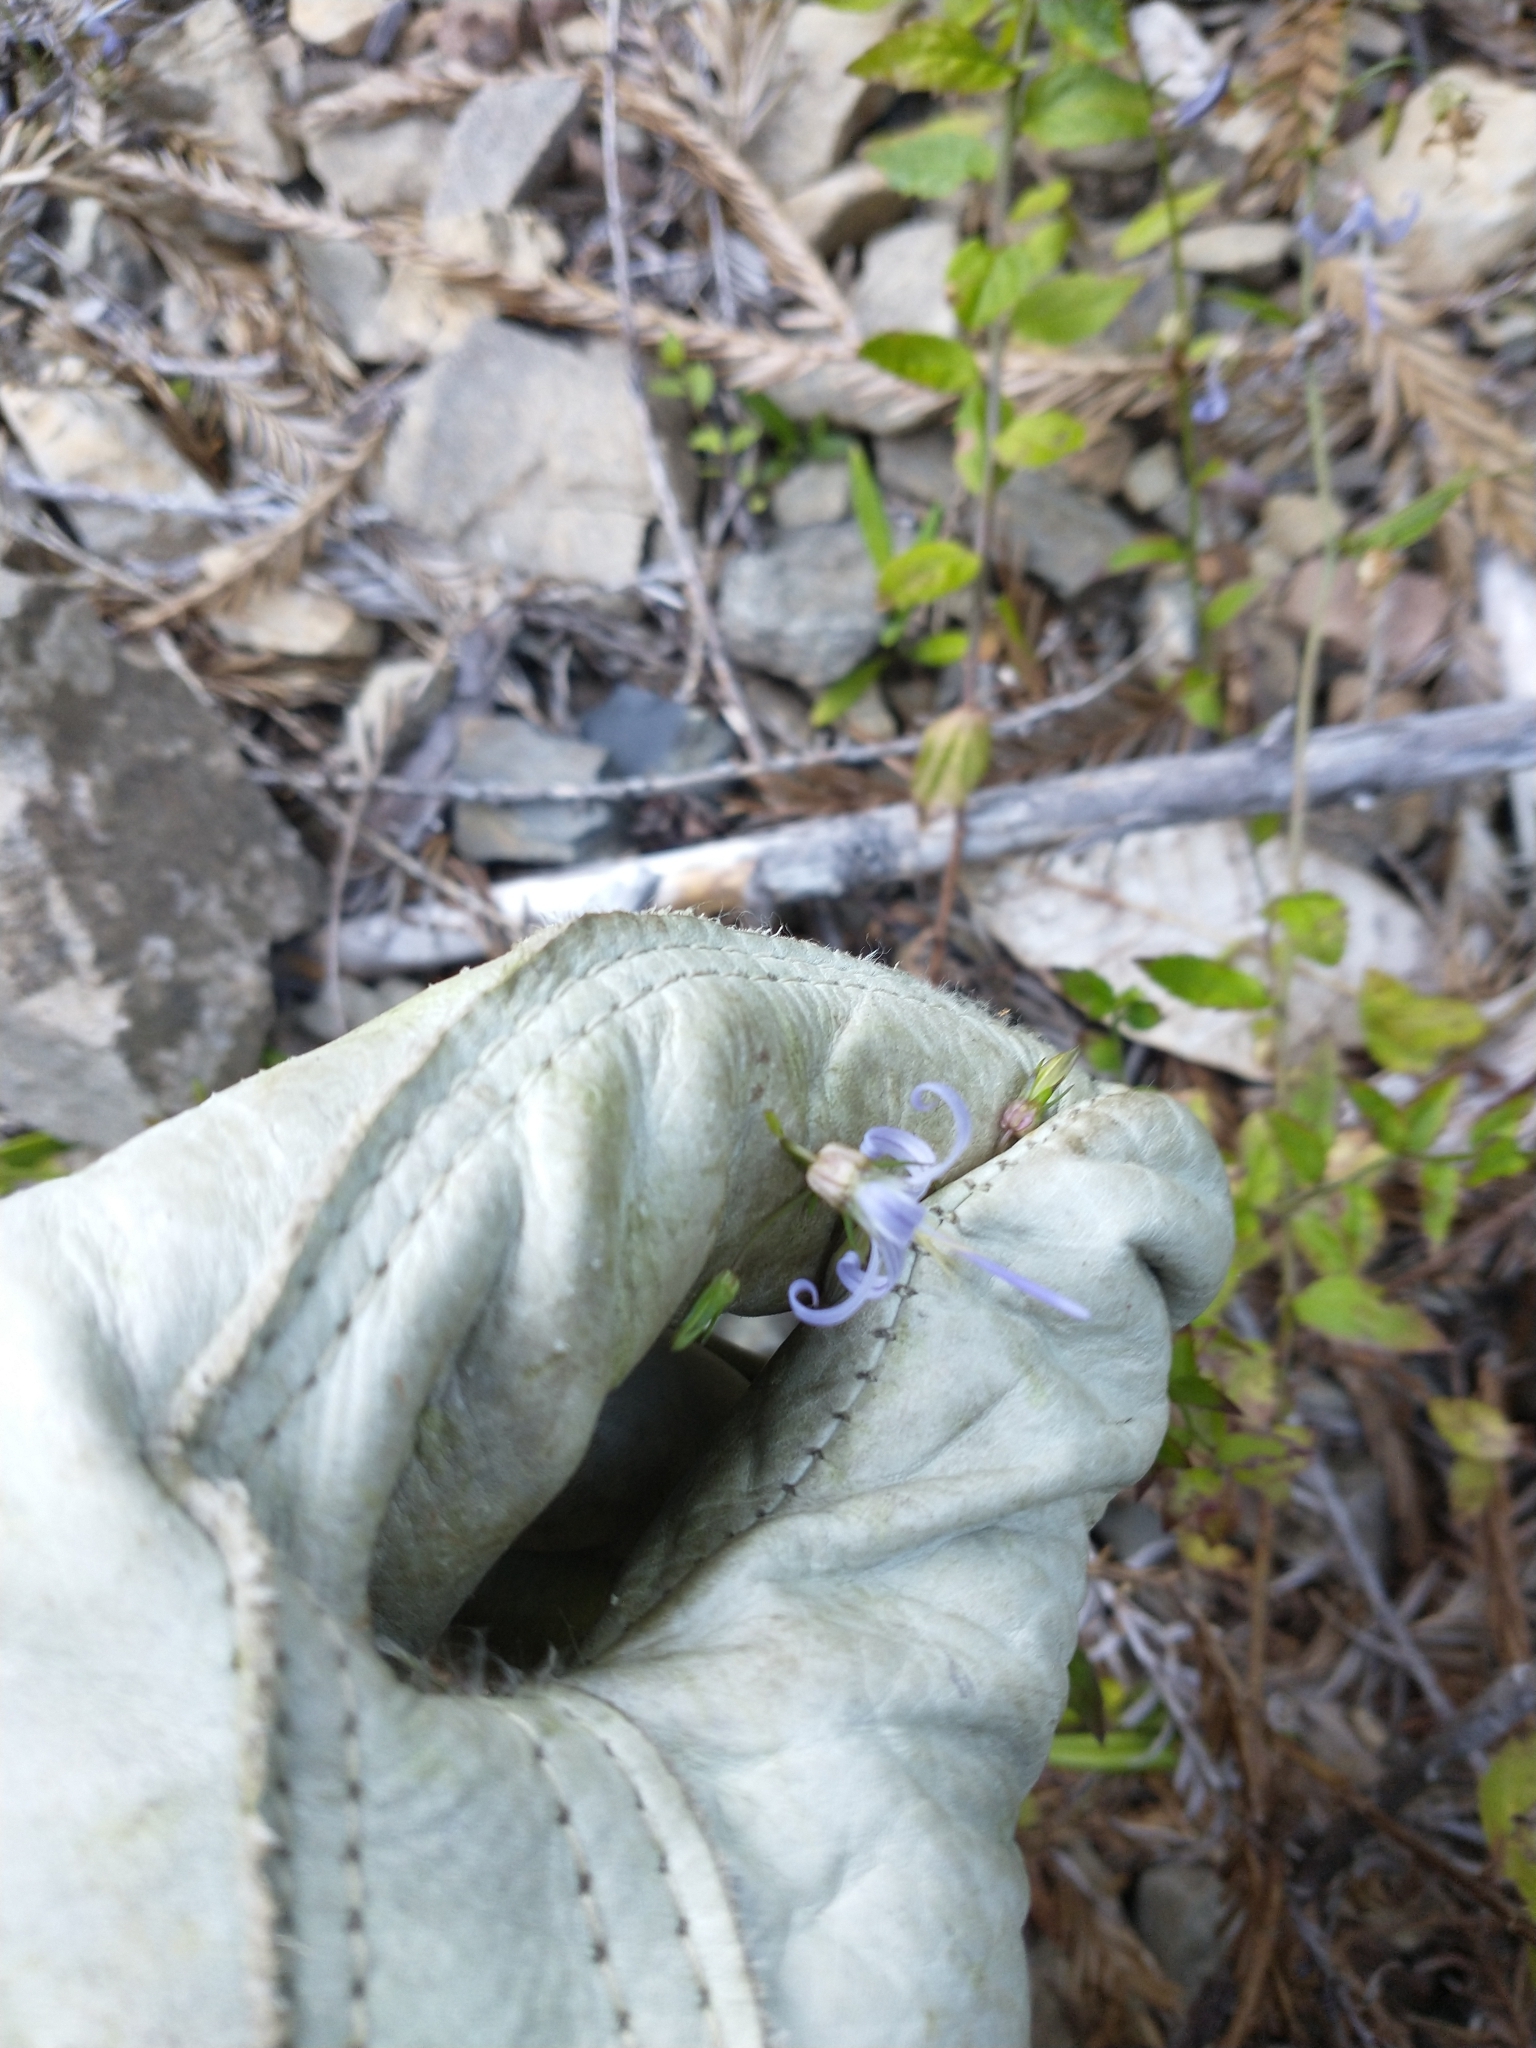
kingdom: Plantae
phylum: Tracheophyta
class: Magnoliopsida
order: Asterales
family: Campanulaceae
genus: Smithiastrum
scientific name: Smithiastrum prenanthoides
